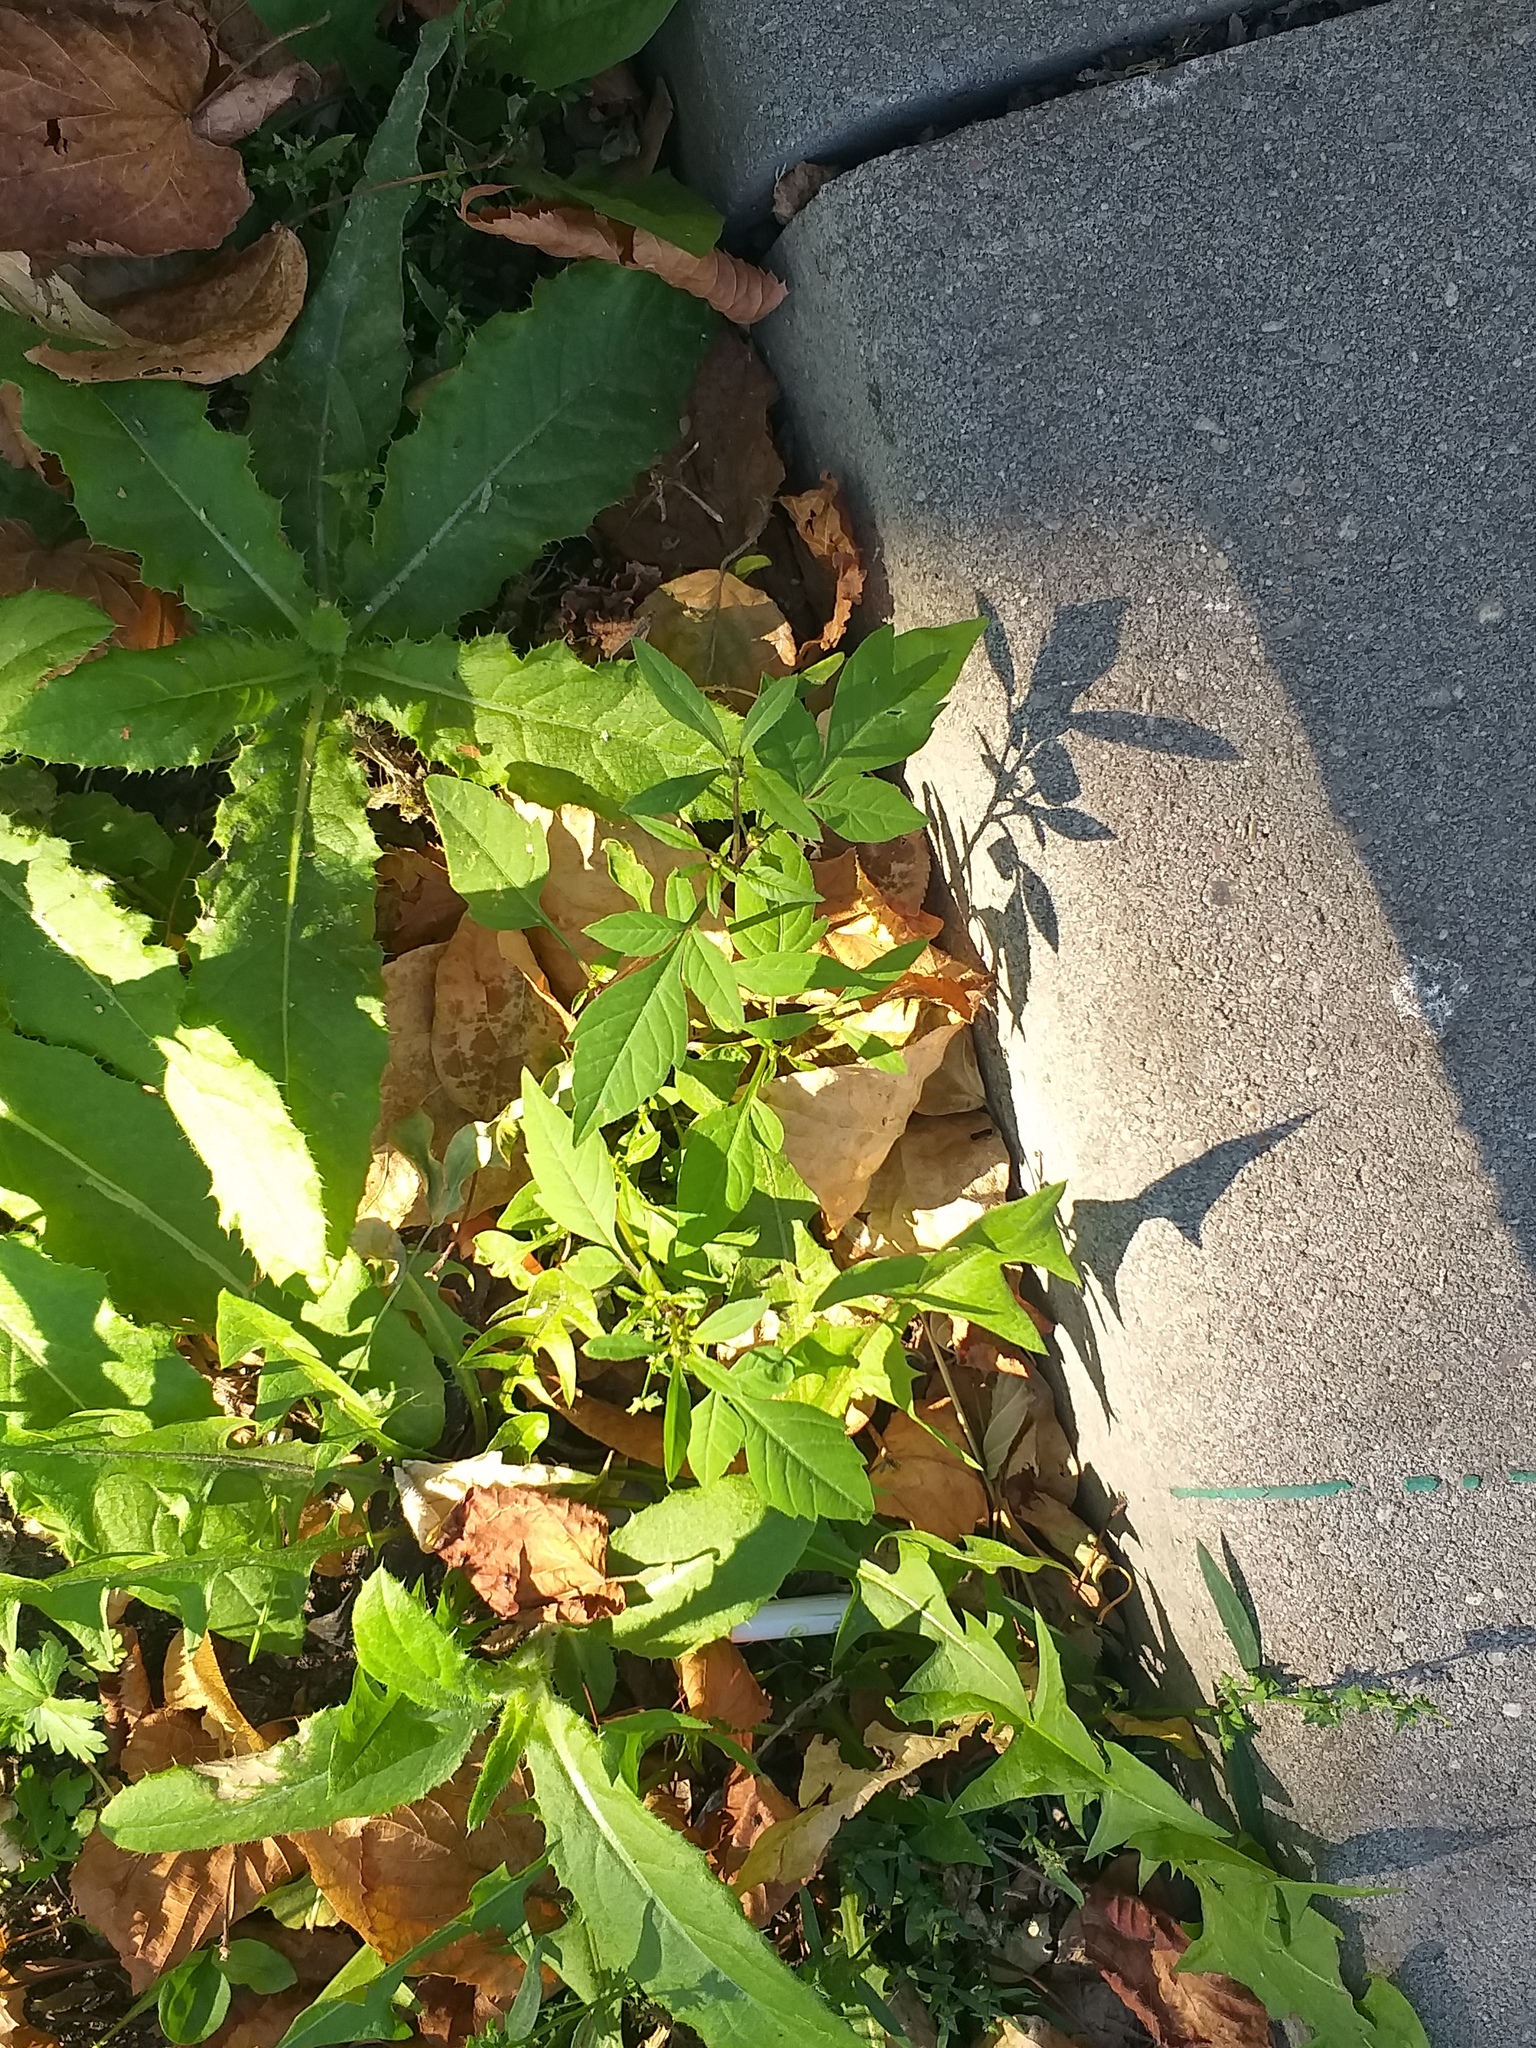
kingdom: Plantae
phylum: Tracheophyta
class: Magnoliopsida
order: Asterales
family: Asteraceae
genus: Bidens
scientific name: Bidens frondosa
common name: Beggarticks
